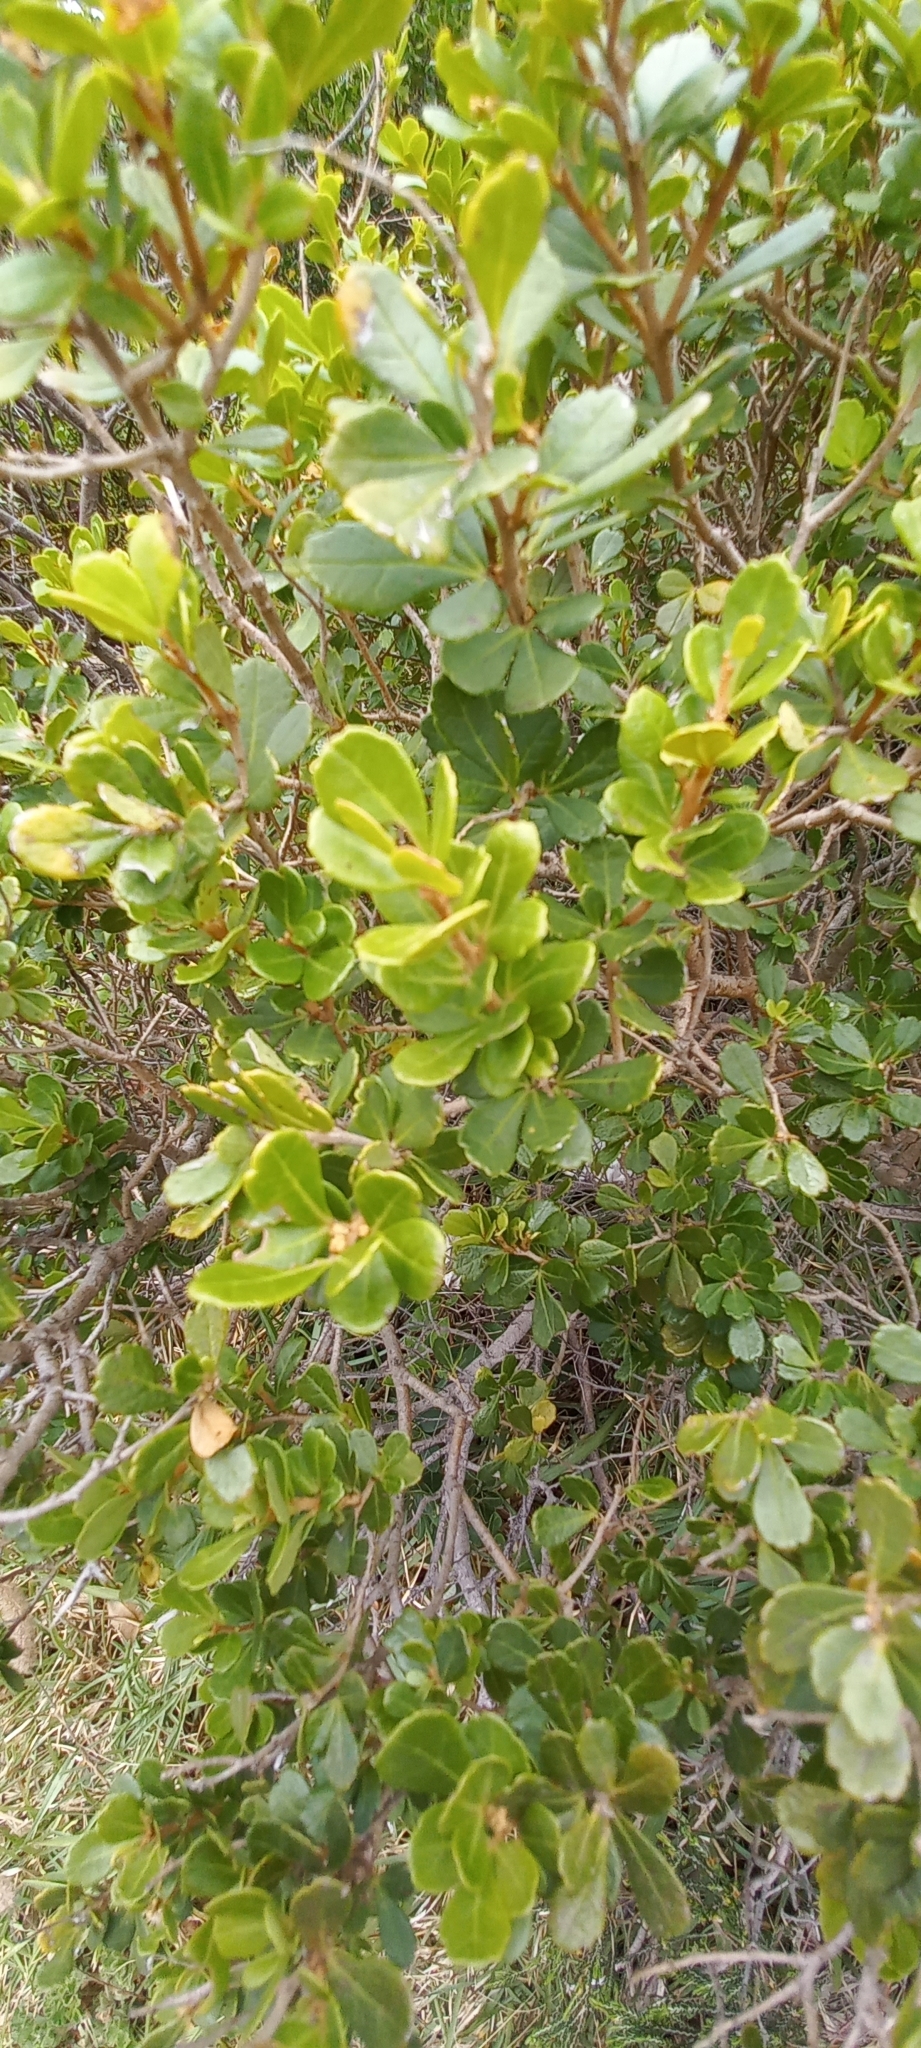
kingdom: Plantae
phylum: Tracheophyta
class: Magnoliopsida
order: Sapindales
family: Anacardiaceae
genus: Searsia
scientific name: Searsia crenata
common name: Crowberry
